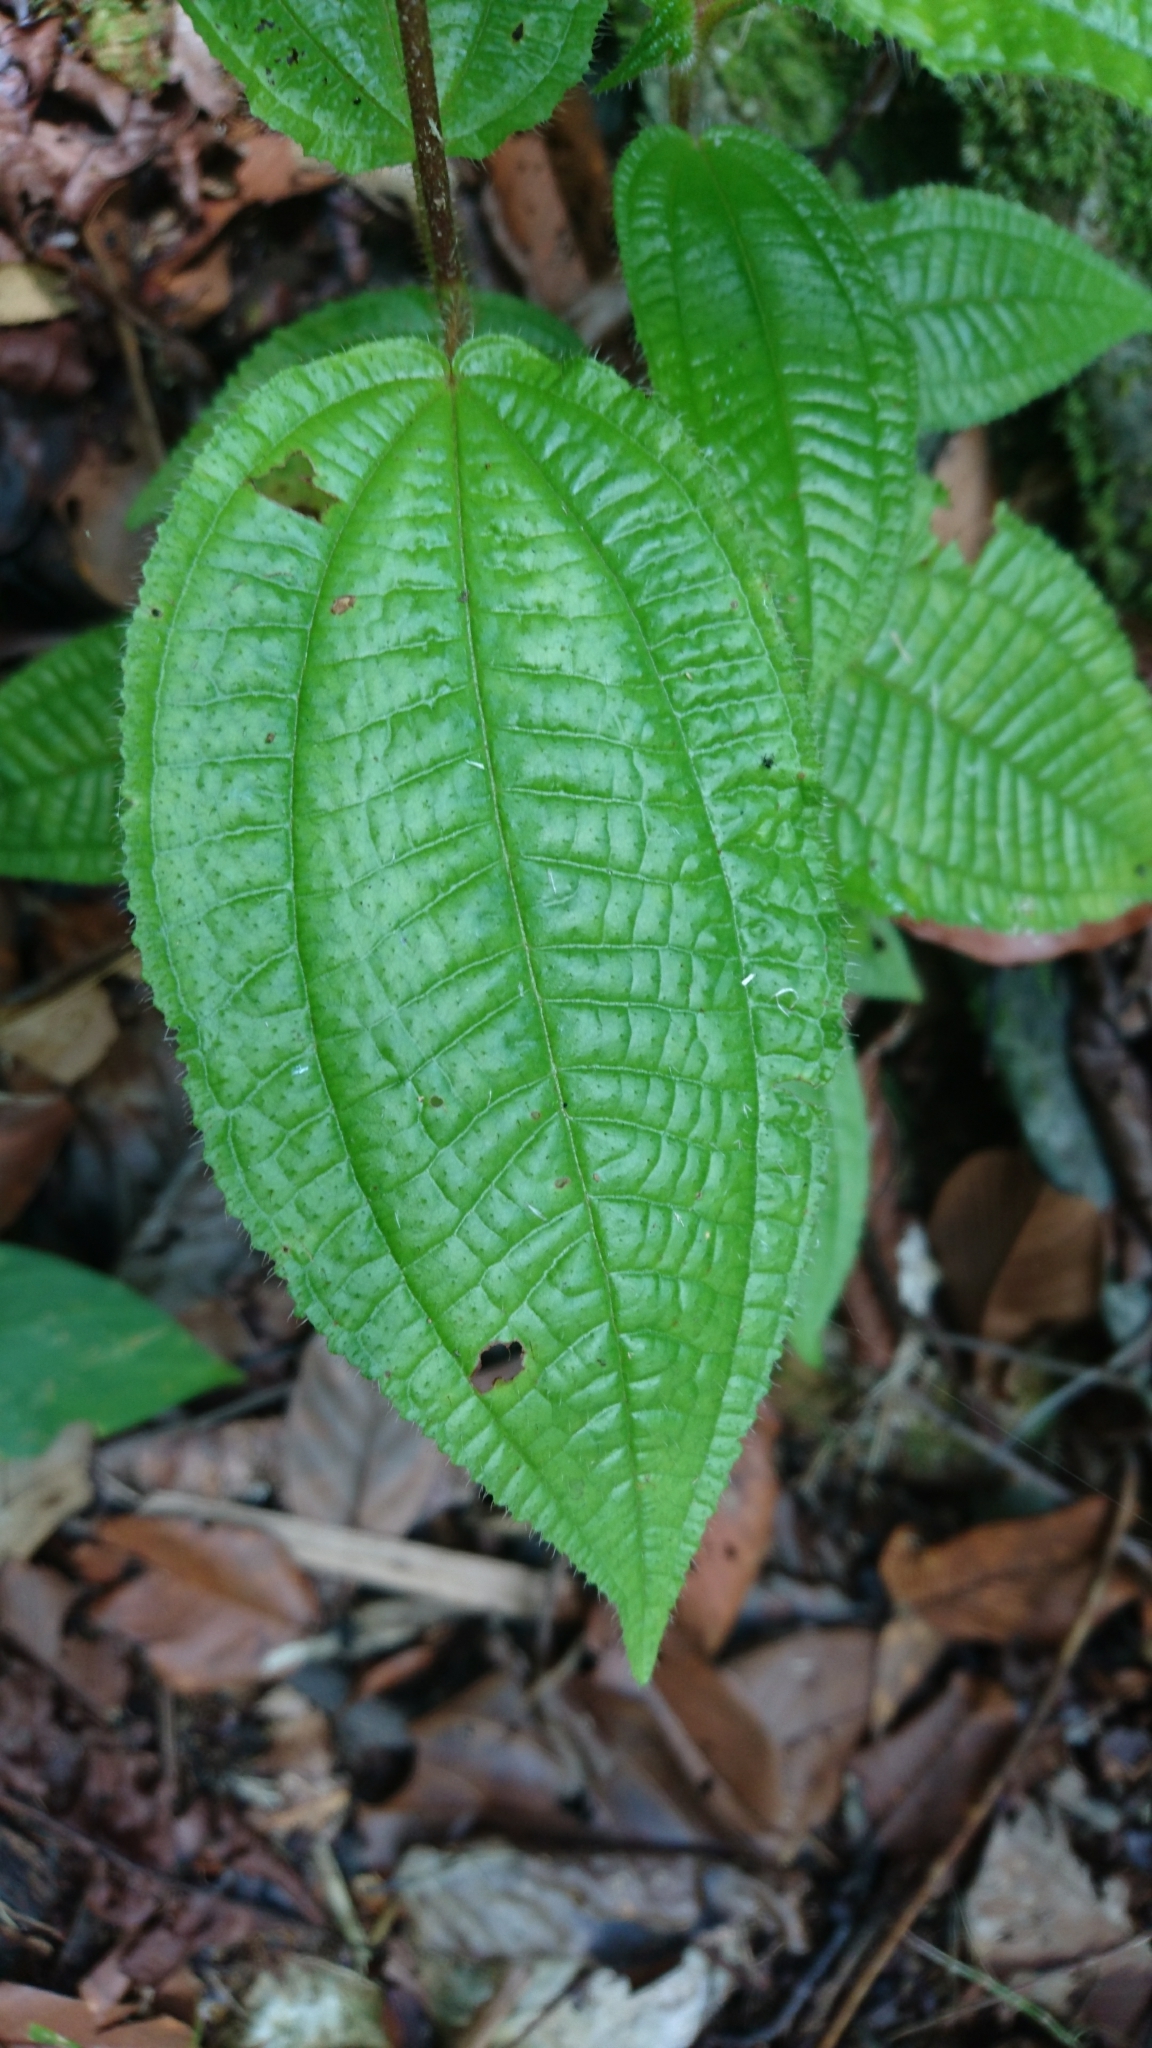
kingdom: Plantae
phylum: Tracheophyta
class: Magnoliopsida
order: Myrtales
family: Melastomataceae
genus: Miconia
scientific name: Miconia crenata
